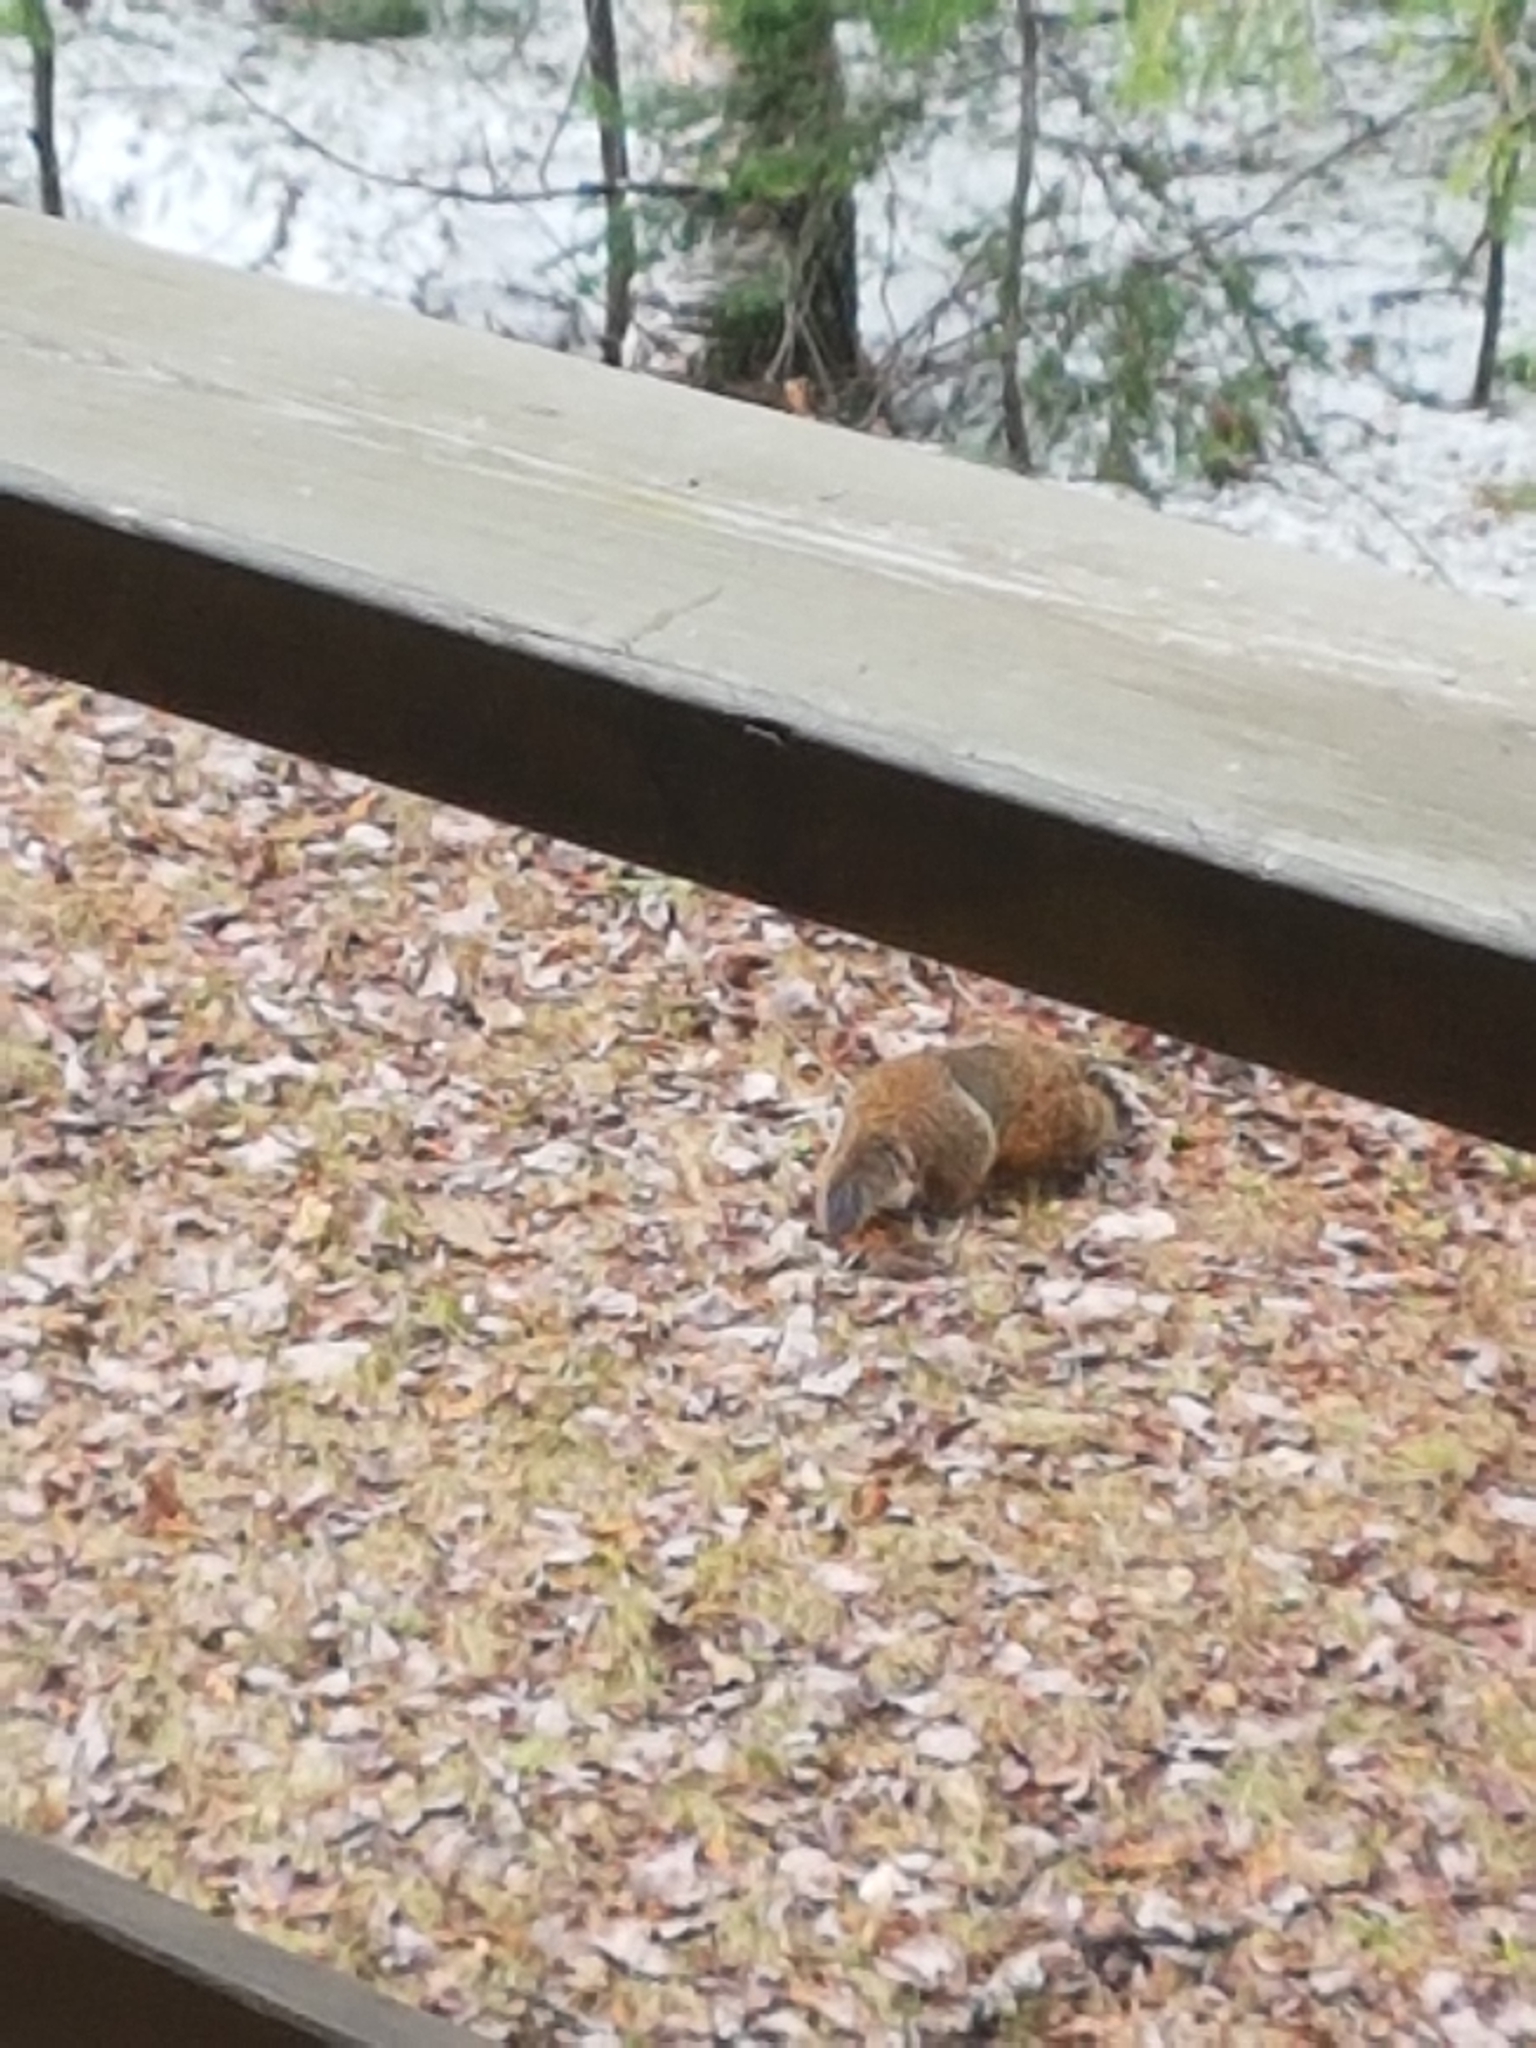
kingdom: Animalia
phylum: Chordata
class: Mammalia
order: Rodentia
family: Sciuridae
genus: Marmota
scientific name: Marmota monax
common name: Groundhog
